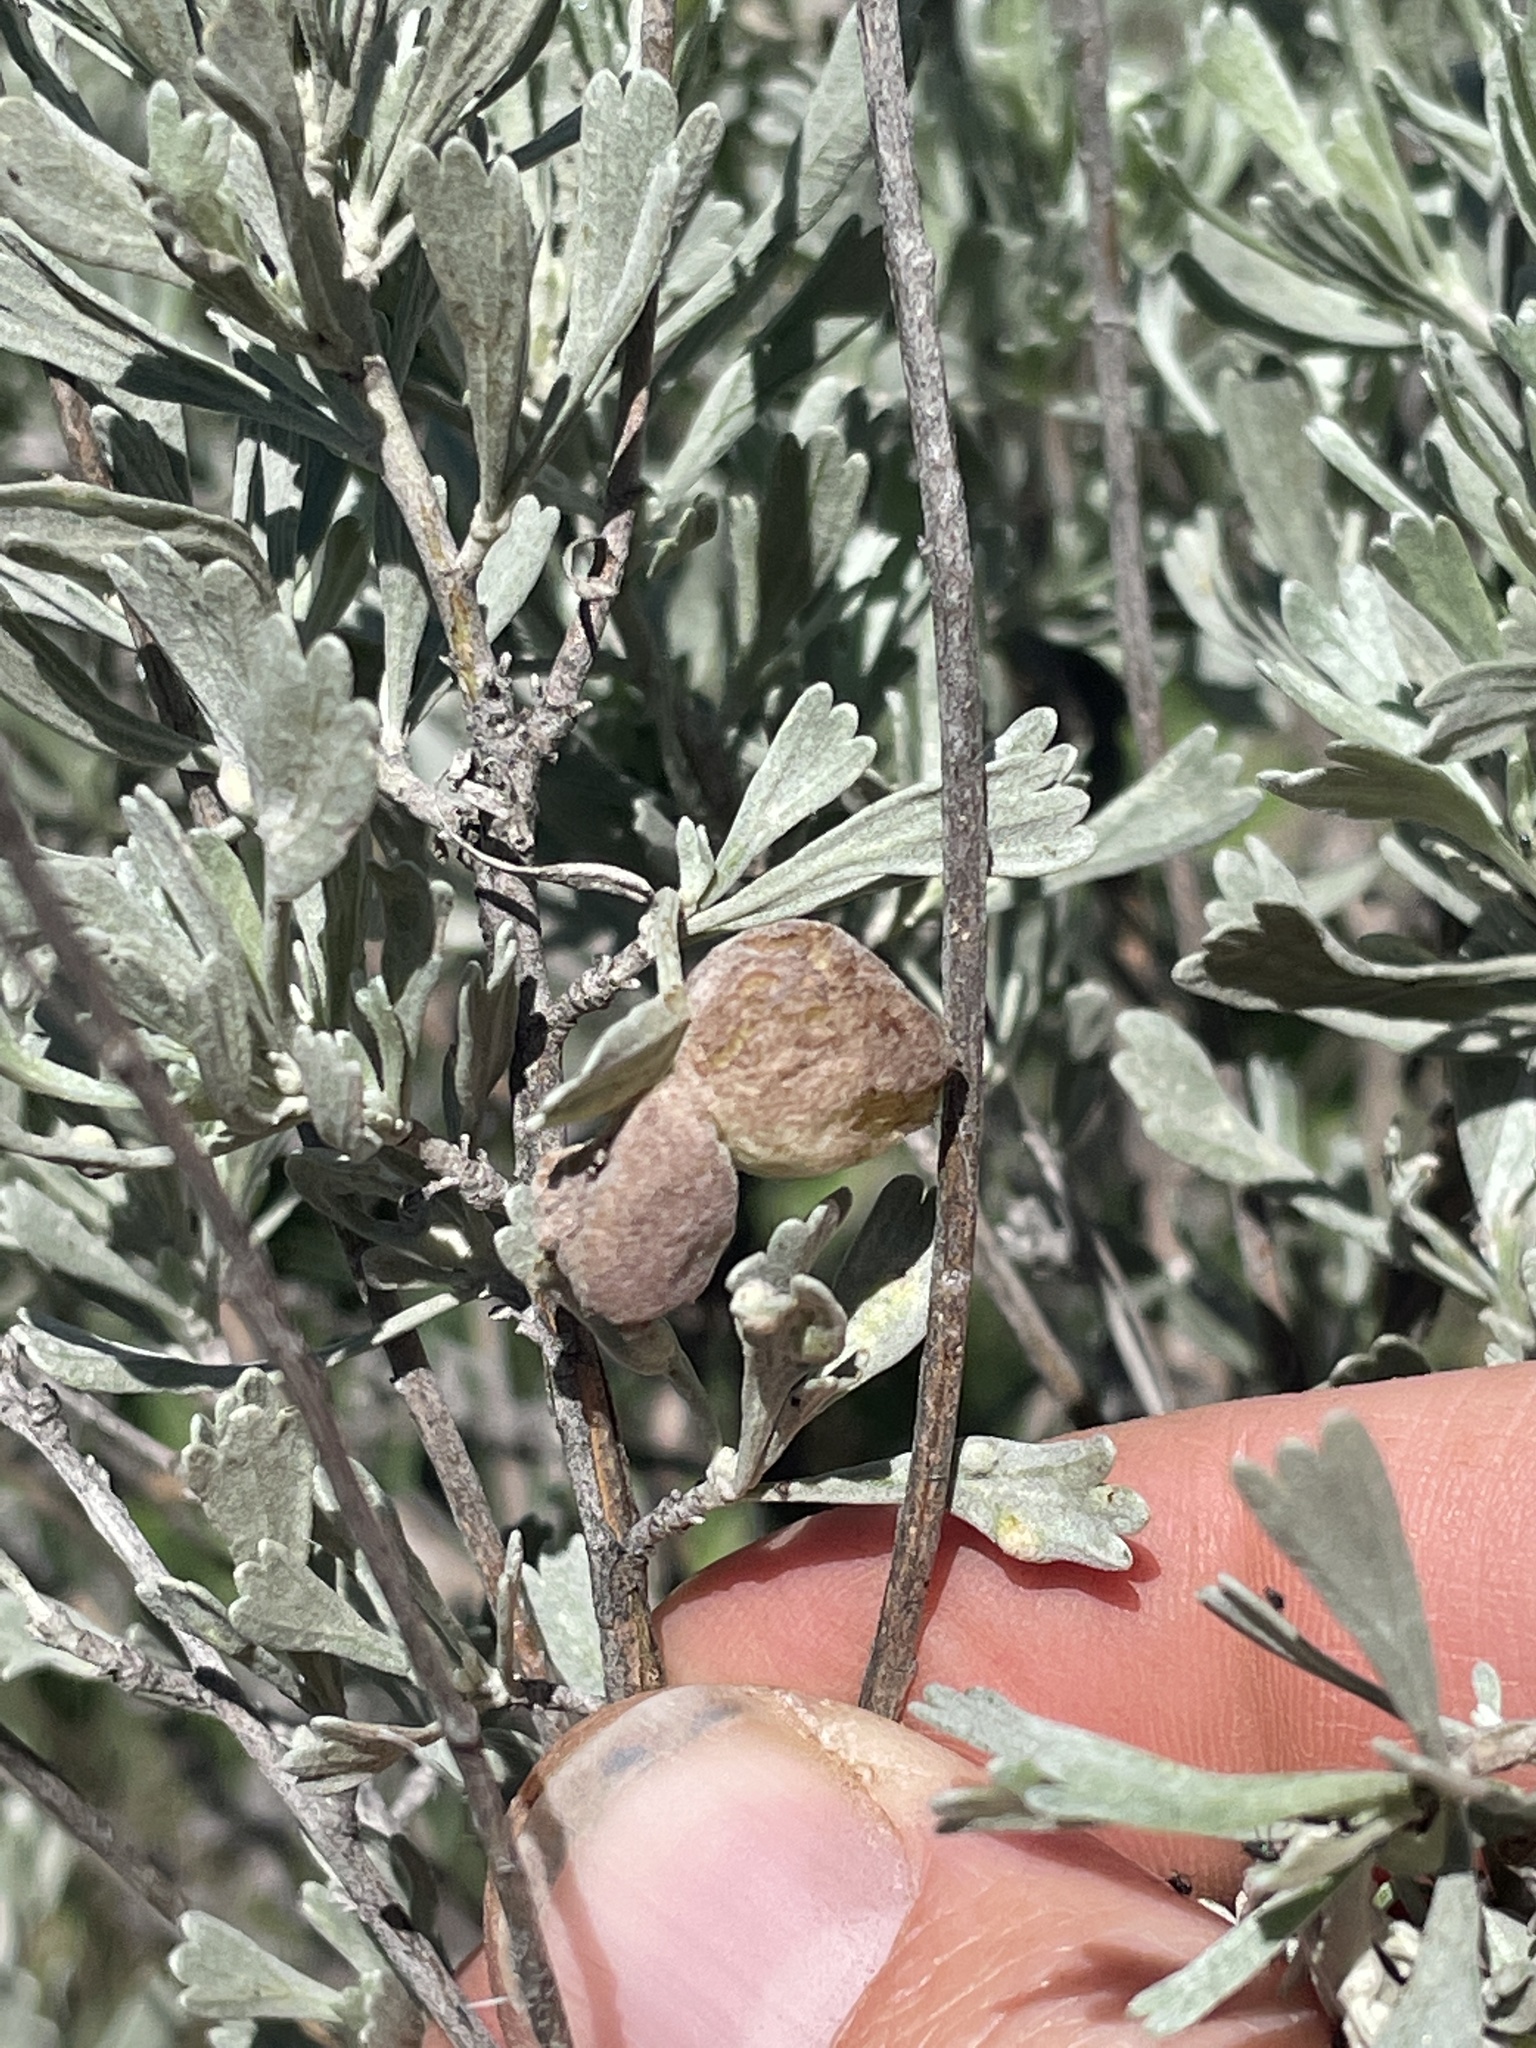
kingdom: Animalia
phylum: Arthropoda
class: Insecta
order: Diptera
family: Cecidomyiidae
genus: Rhopalomyia
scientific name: Rhopalomyia pomum
